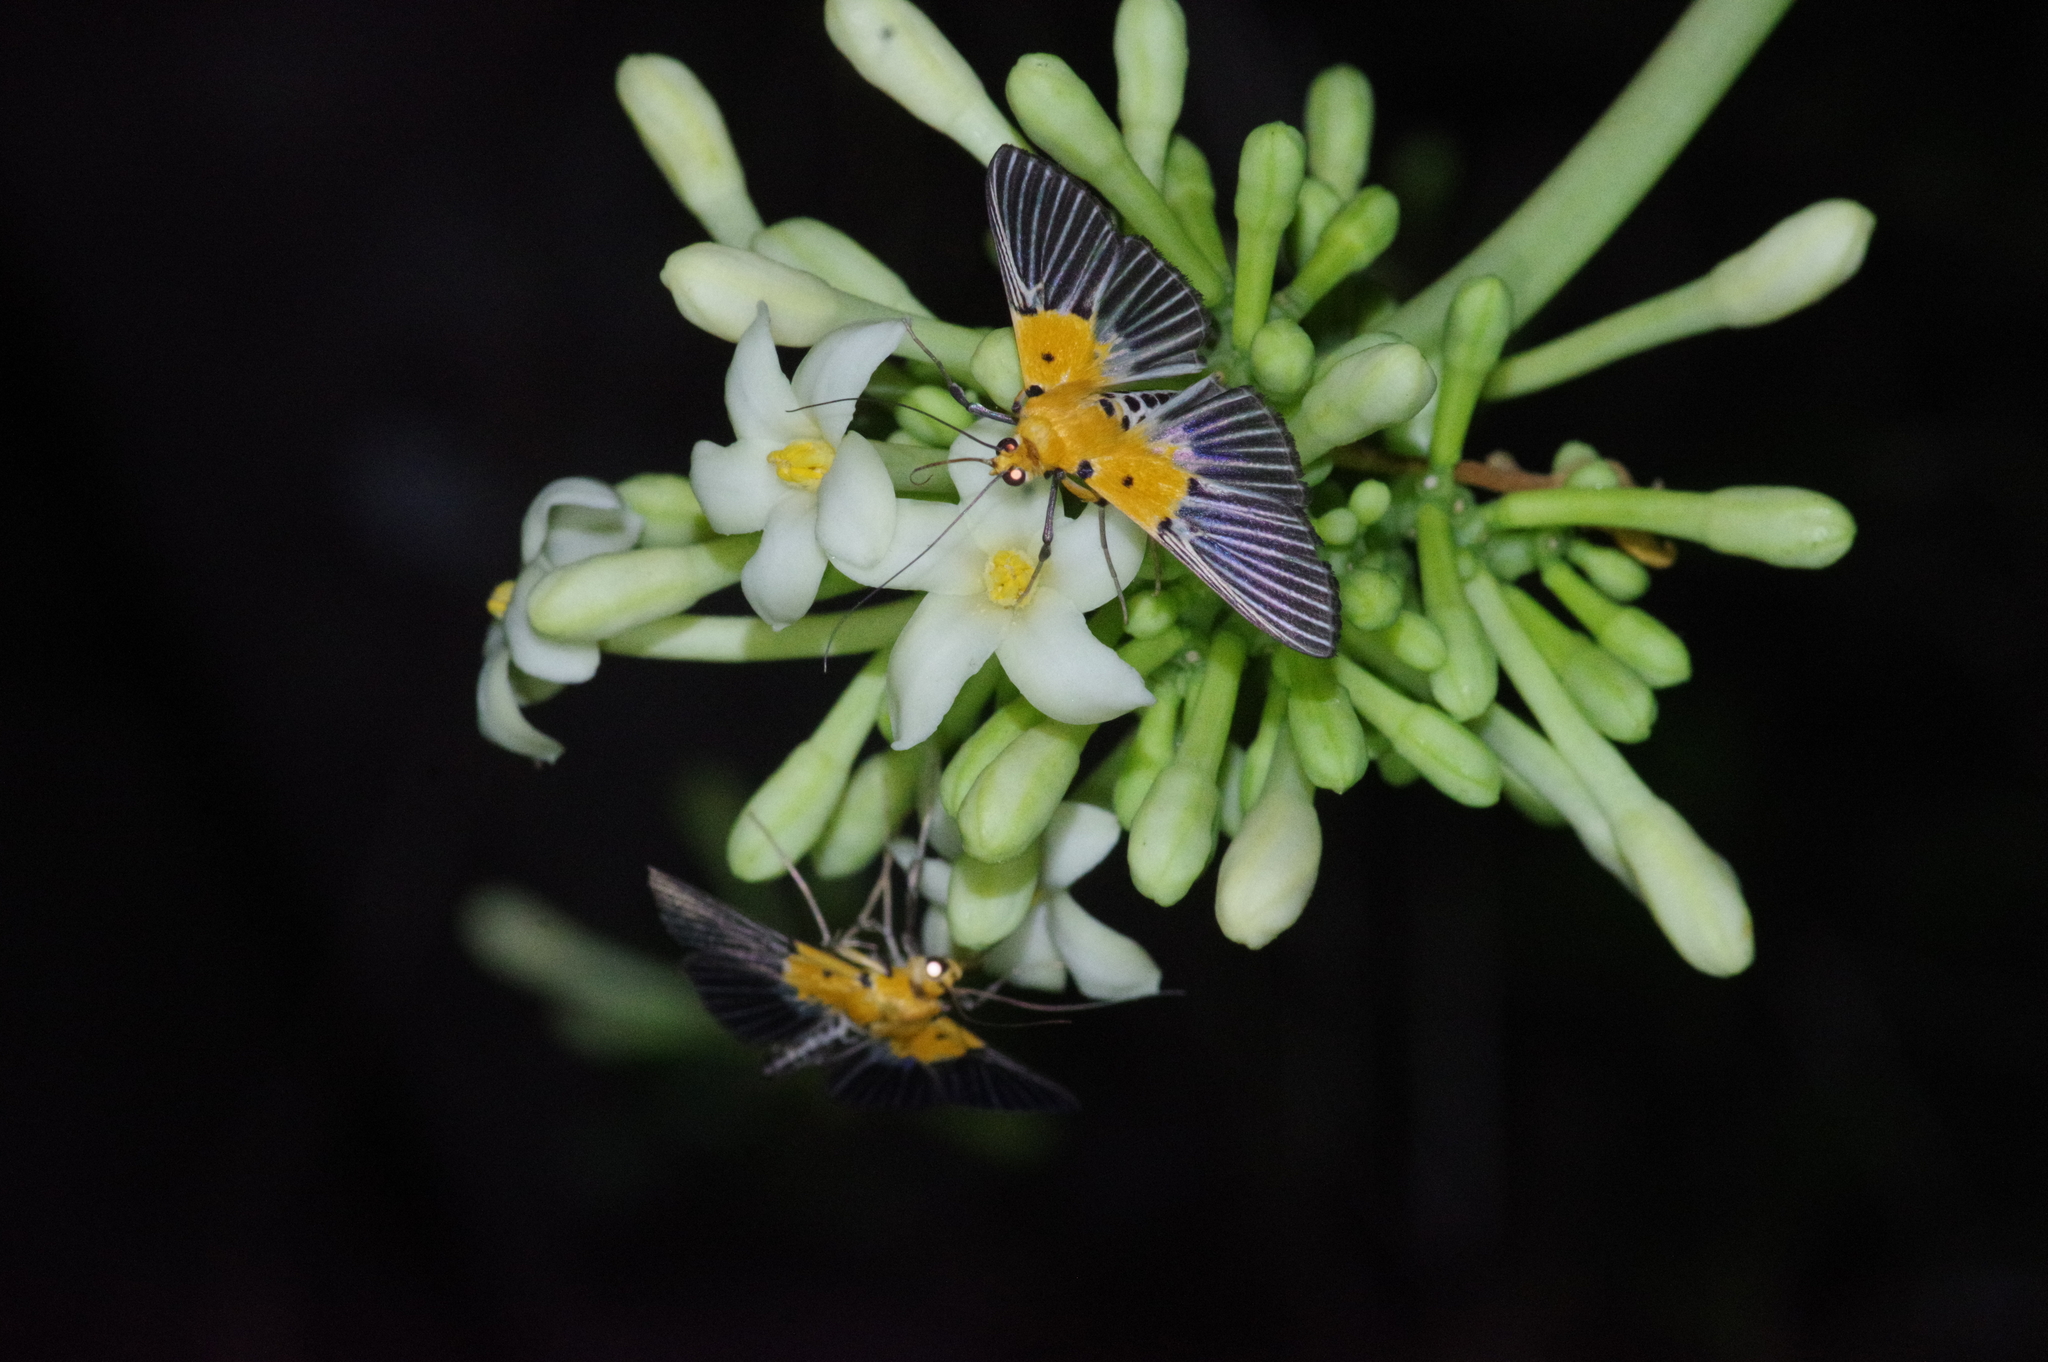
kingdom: Animalia
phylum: Arthropoda
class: Insecta
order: Lepidoptera
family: Crambidae
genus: Nevrina
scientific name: Nevrina procopia
